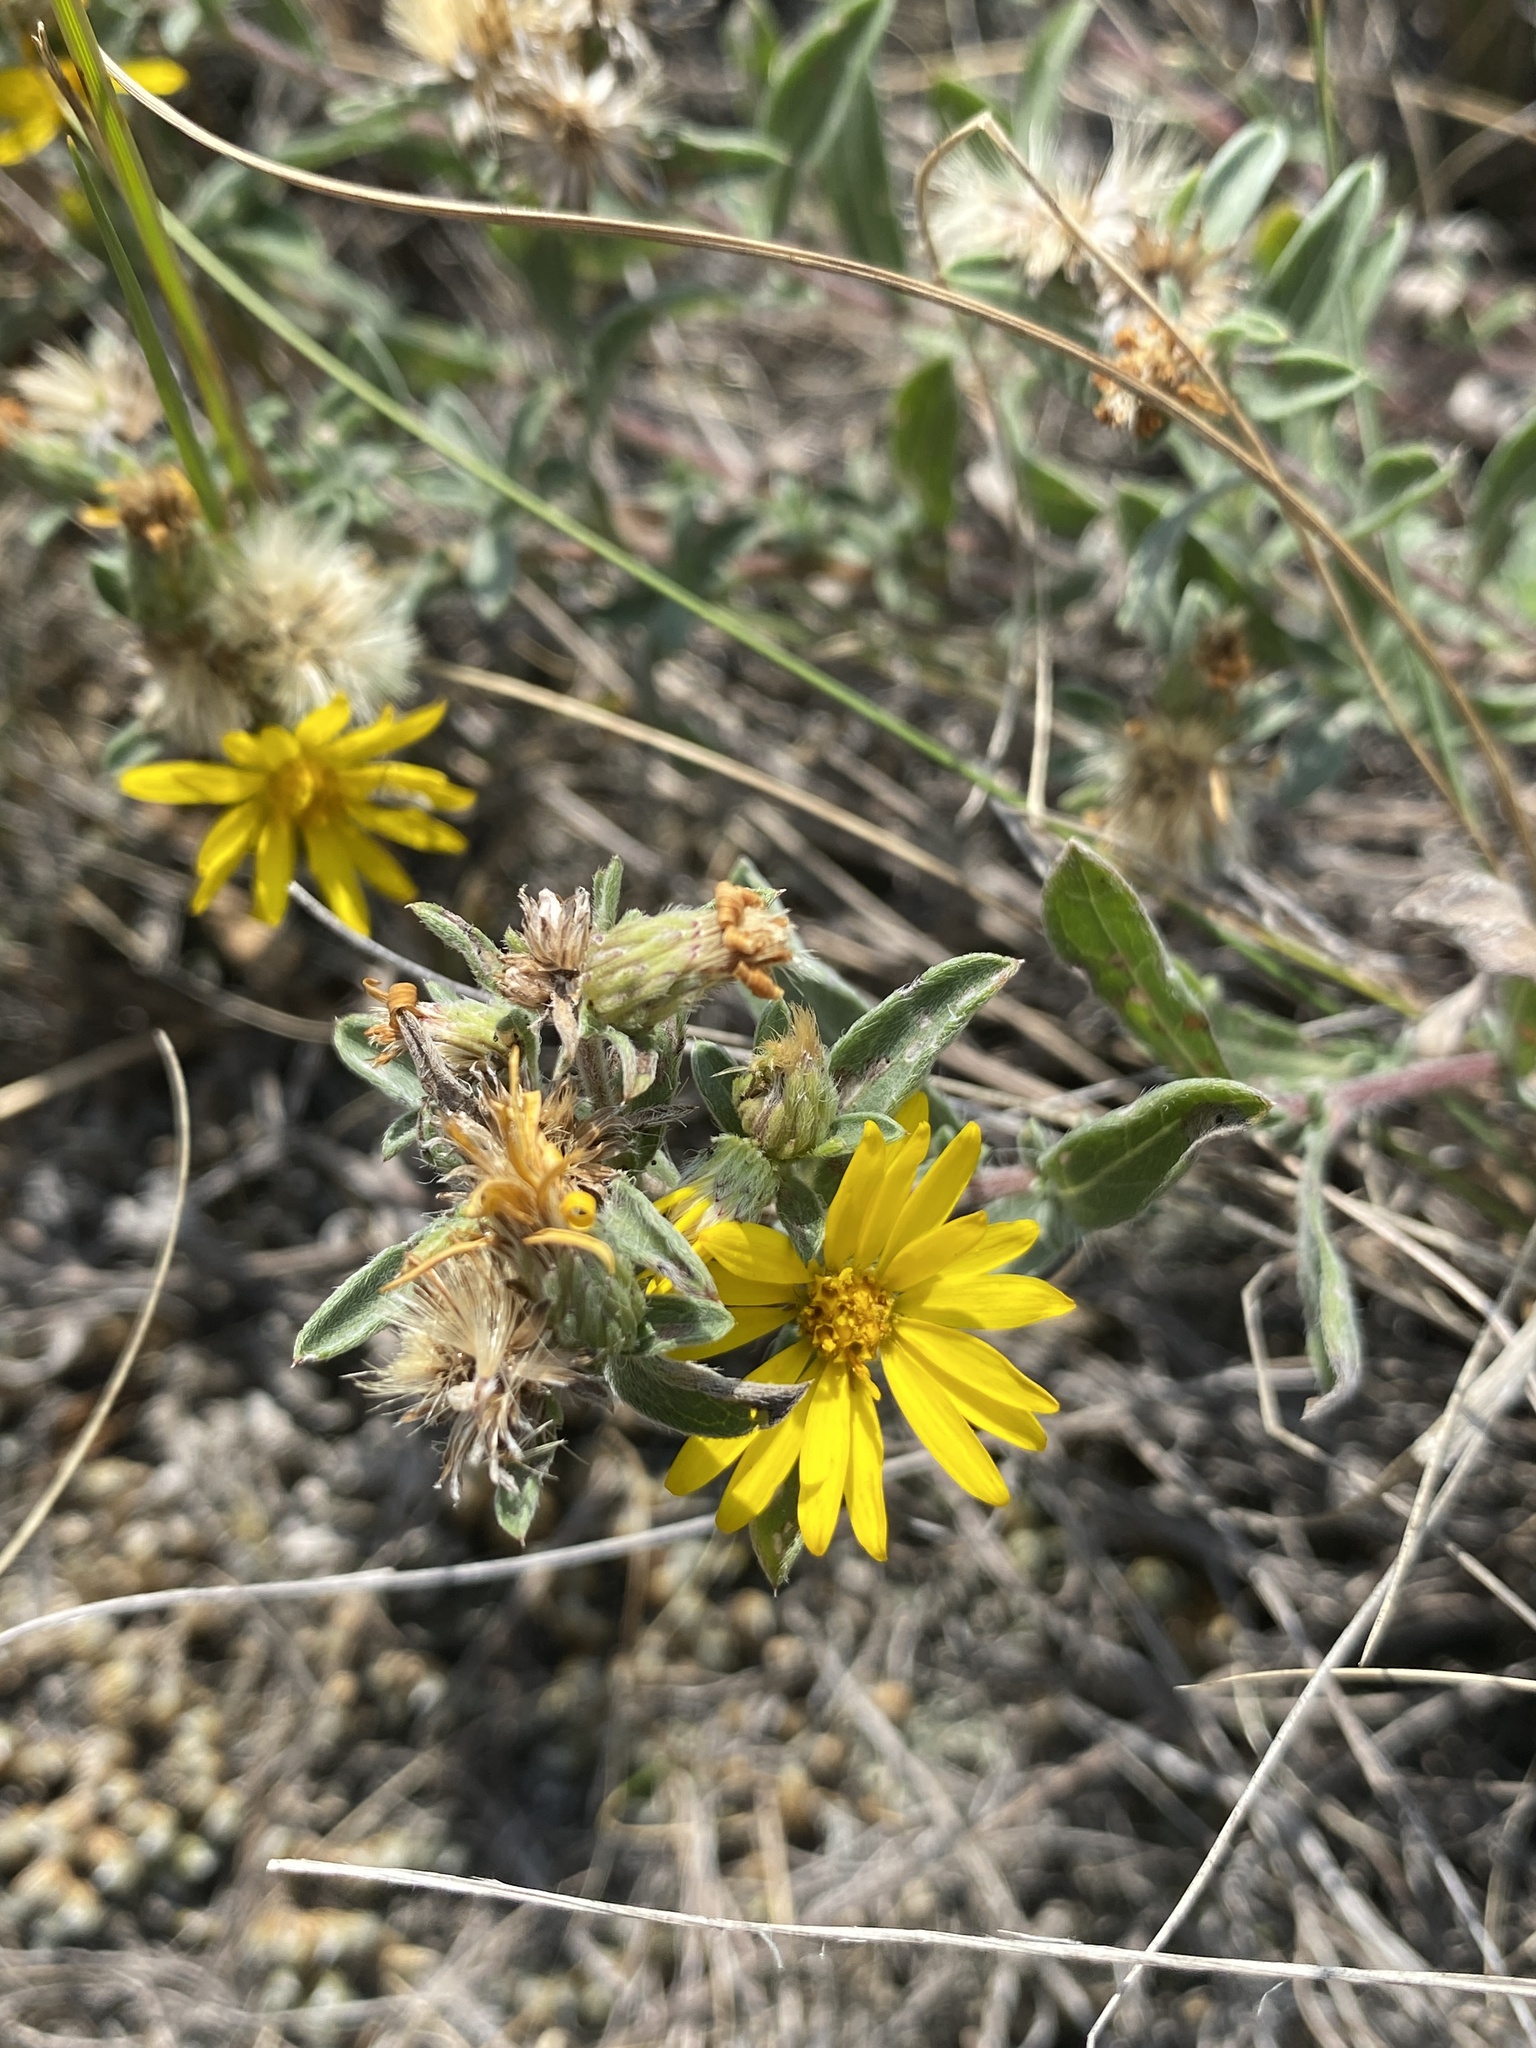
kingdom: Plantae
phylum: Tracheophyta
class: Magnoliopsida
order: Asterales
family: Asteraceae
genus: Heterotheca
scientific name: Heterotheca villosa
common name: Hairy false goldenaster
